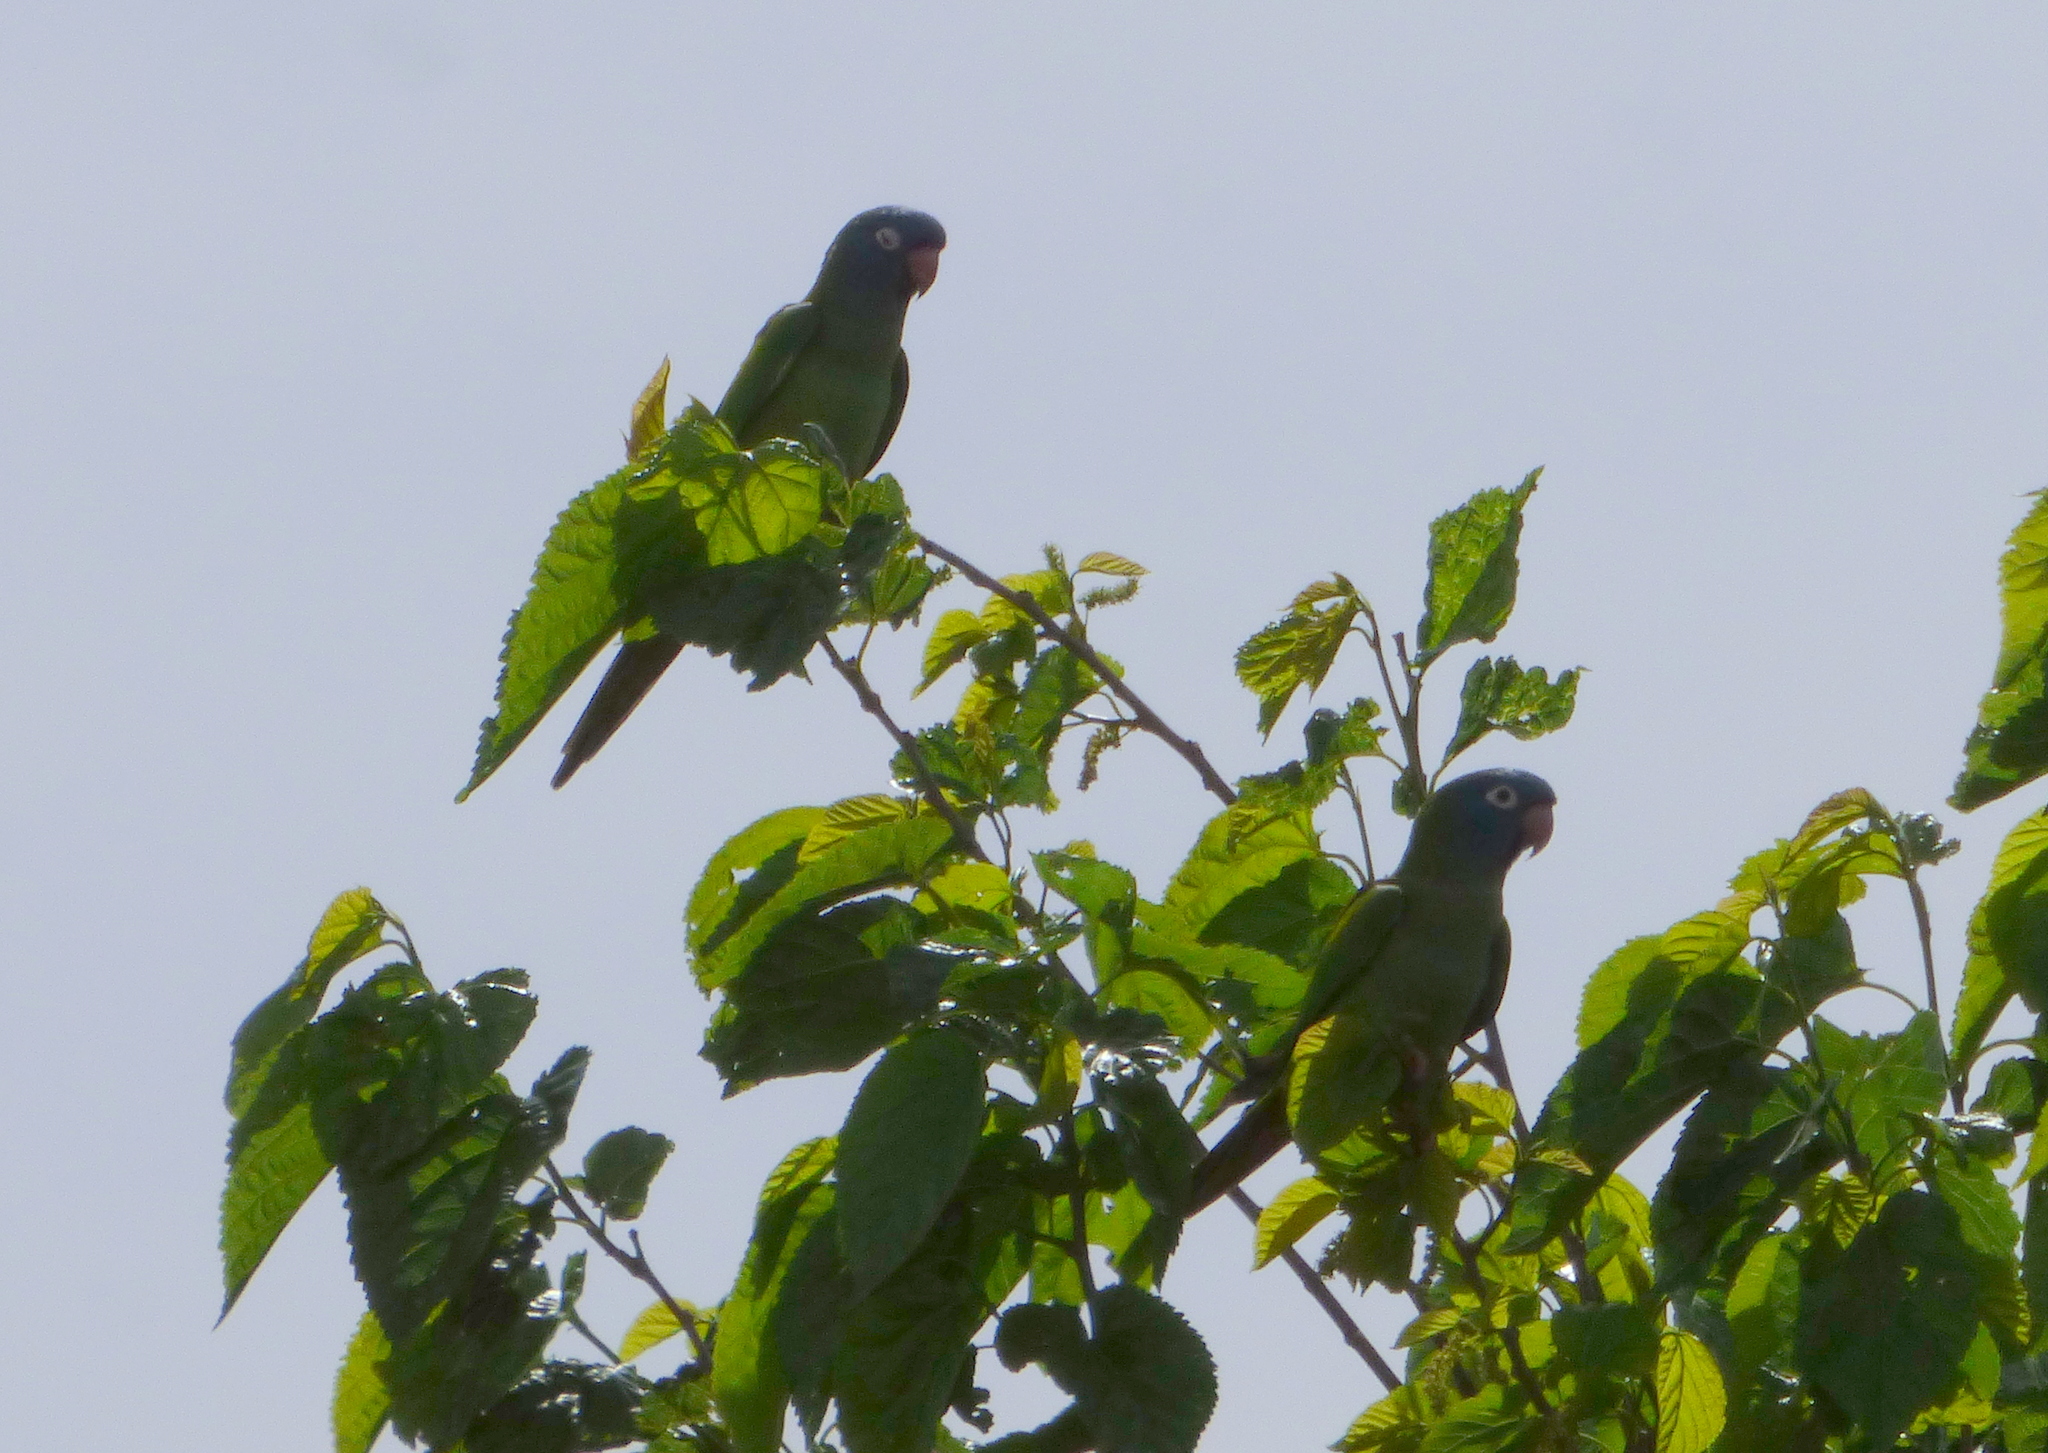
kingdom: Animalia
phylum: Chordata
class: Aves
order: Psittaciformes
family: Psittacidae
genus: Aratinga
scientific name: Aratinga acuticaudata
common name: Blue-crowned parakeet
